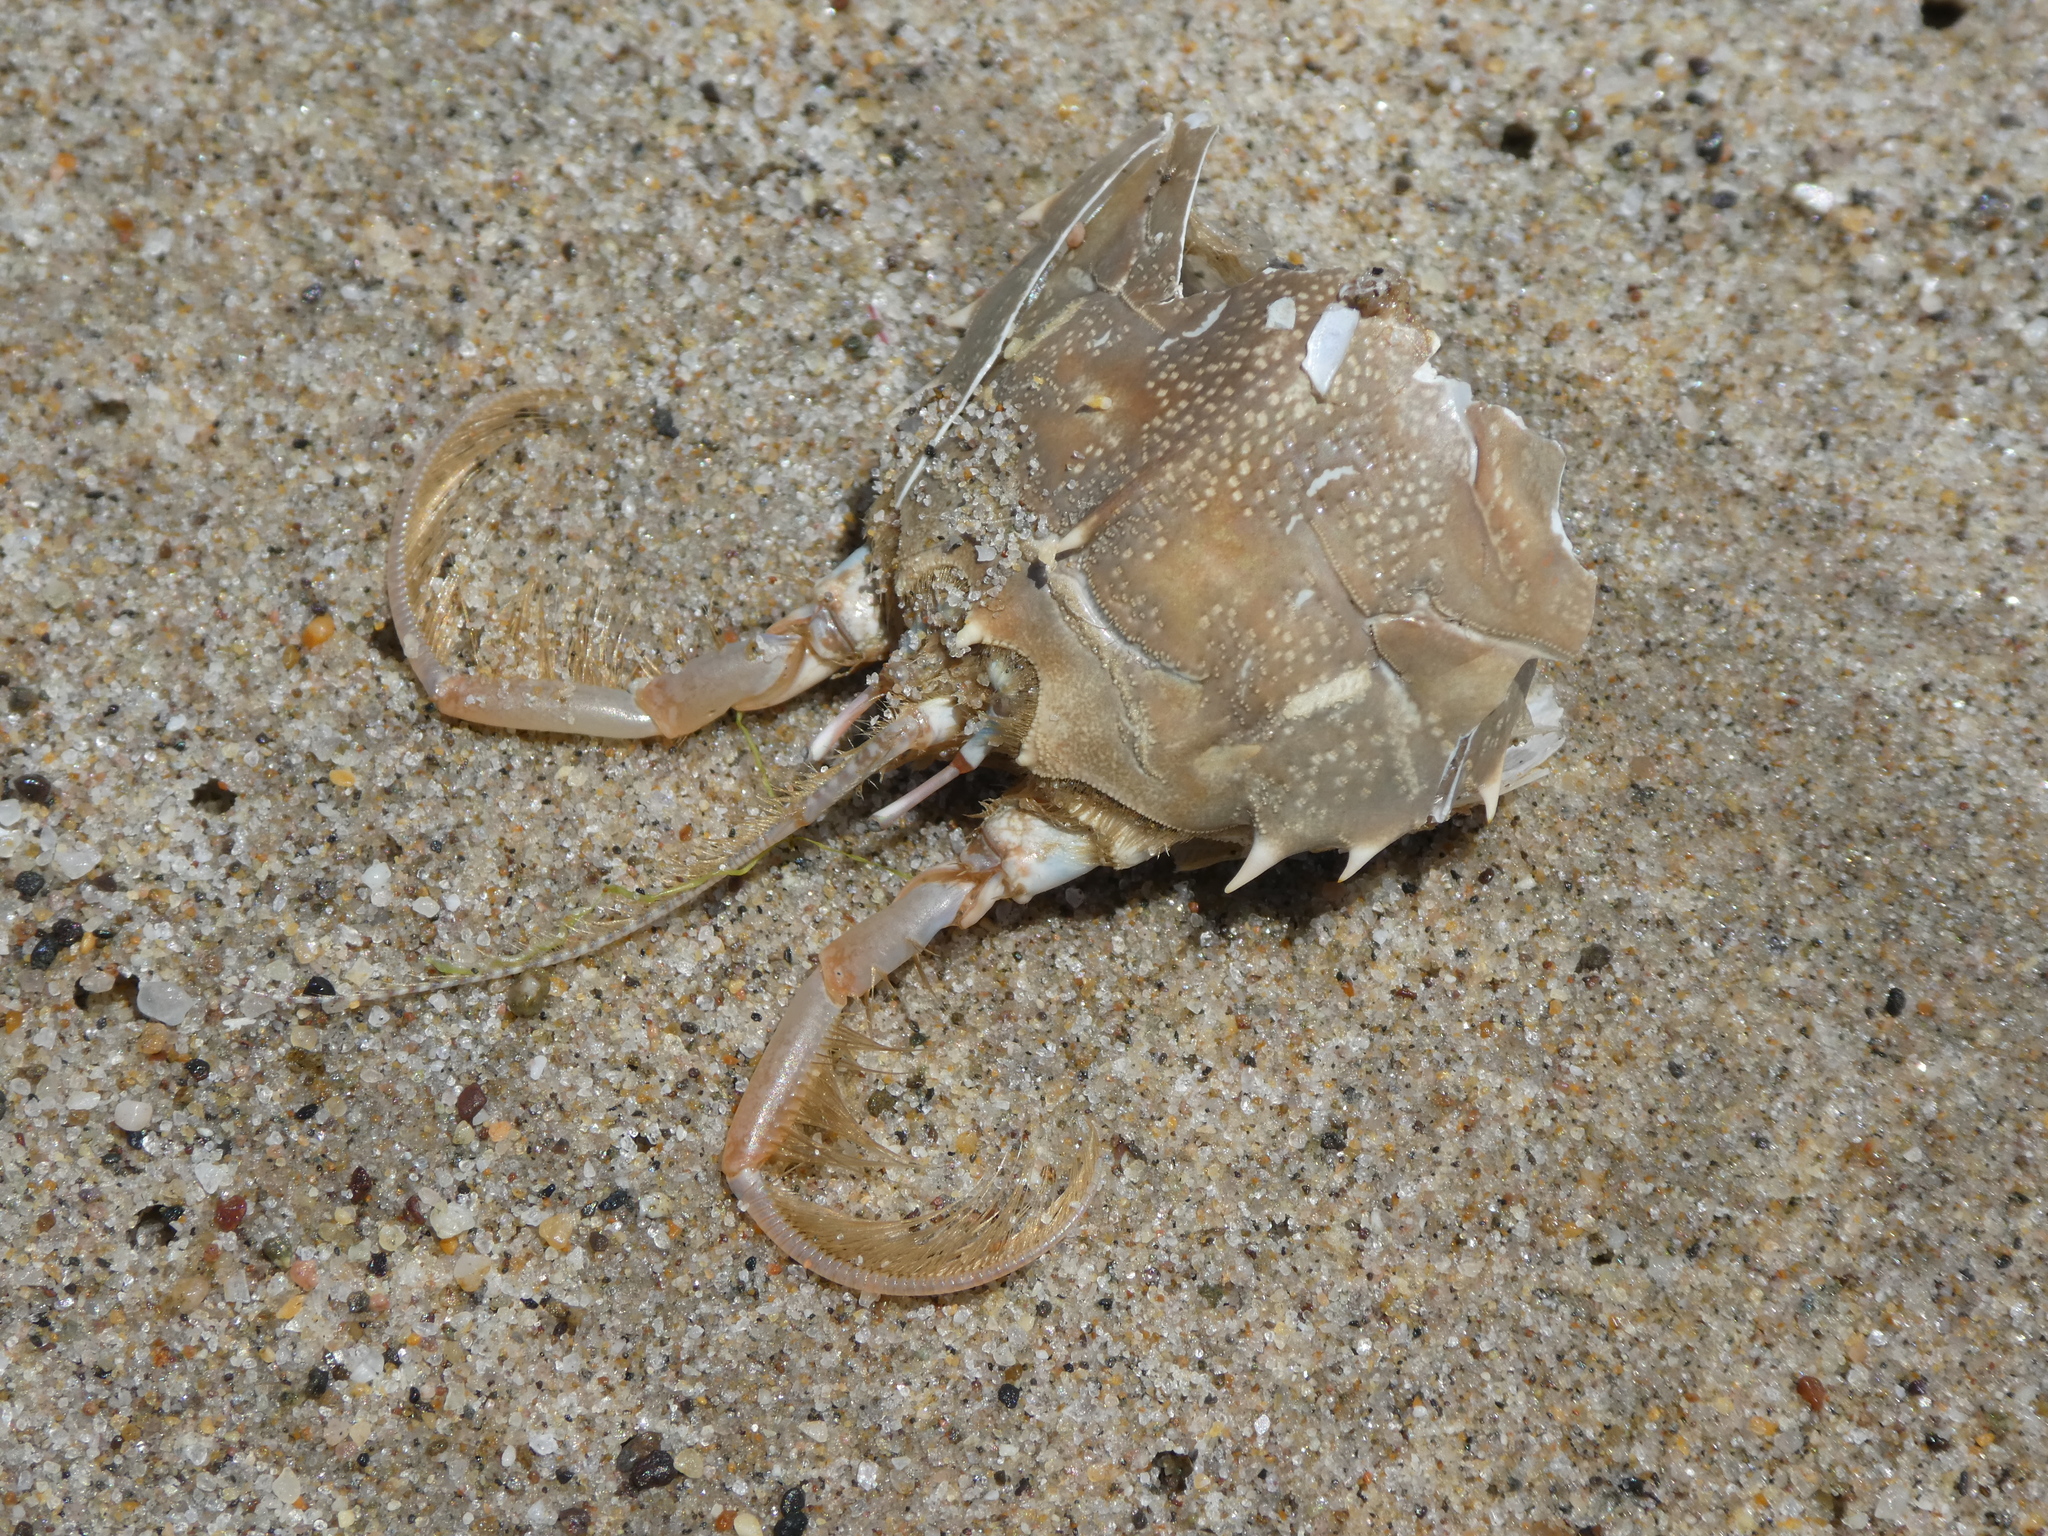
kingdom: Animalia
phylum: Arthropoda
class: Malacostraca
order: Decapoda
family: Blepharipodidae
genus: Blepharipoda
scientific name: Blepharipoda occidentalis
